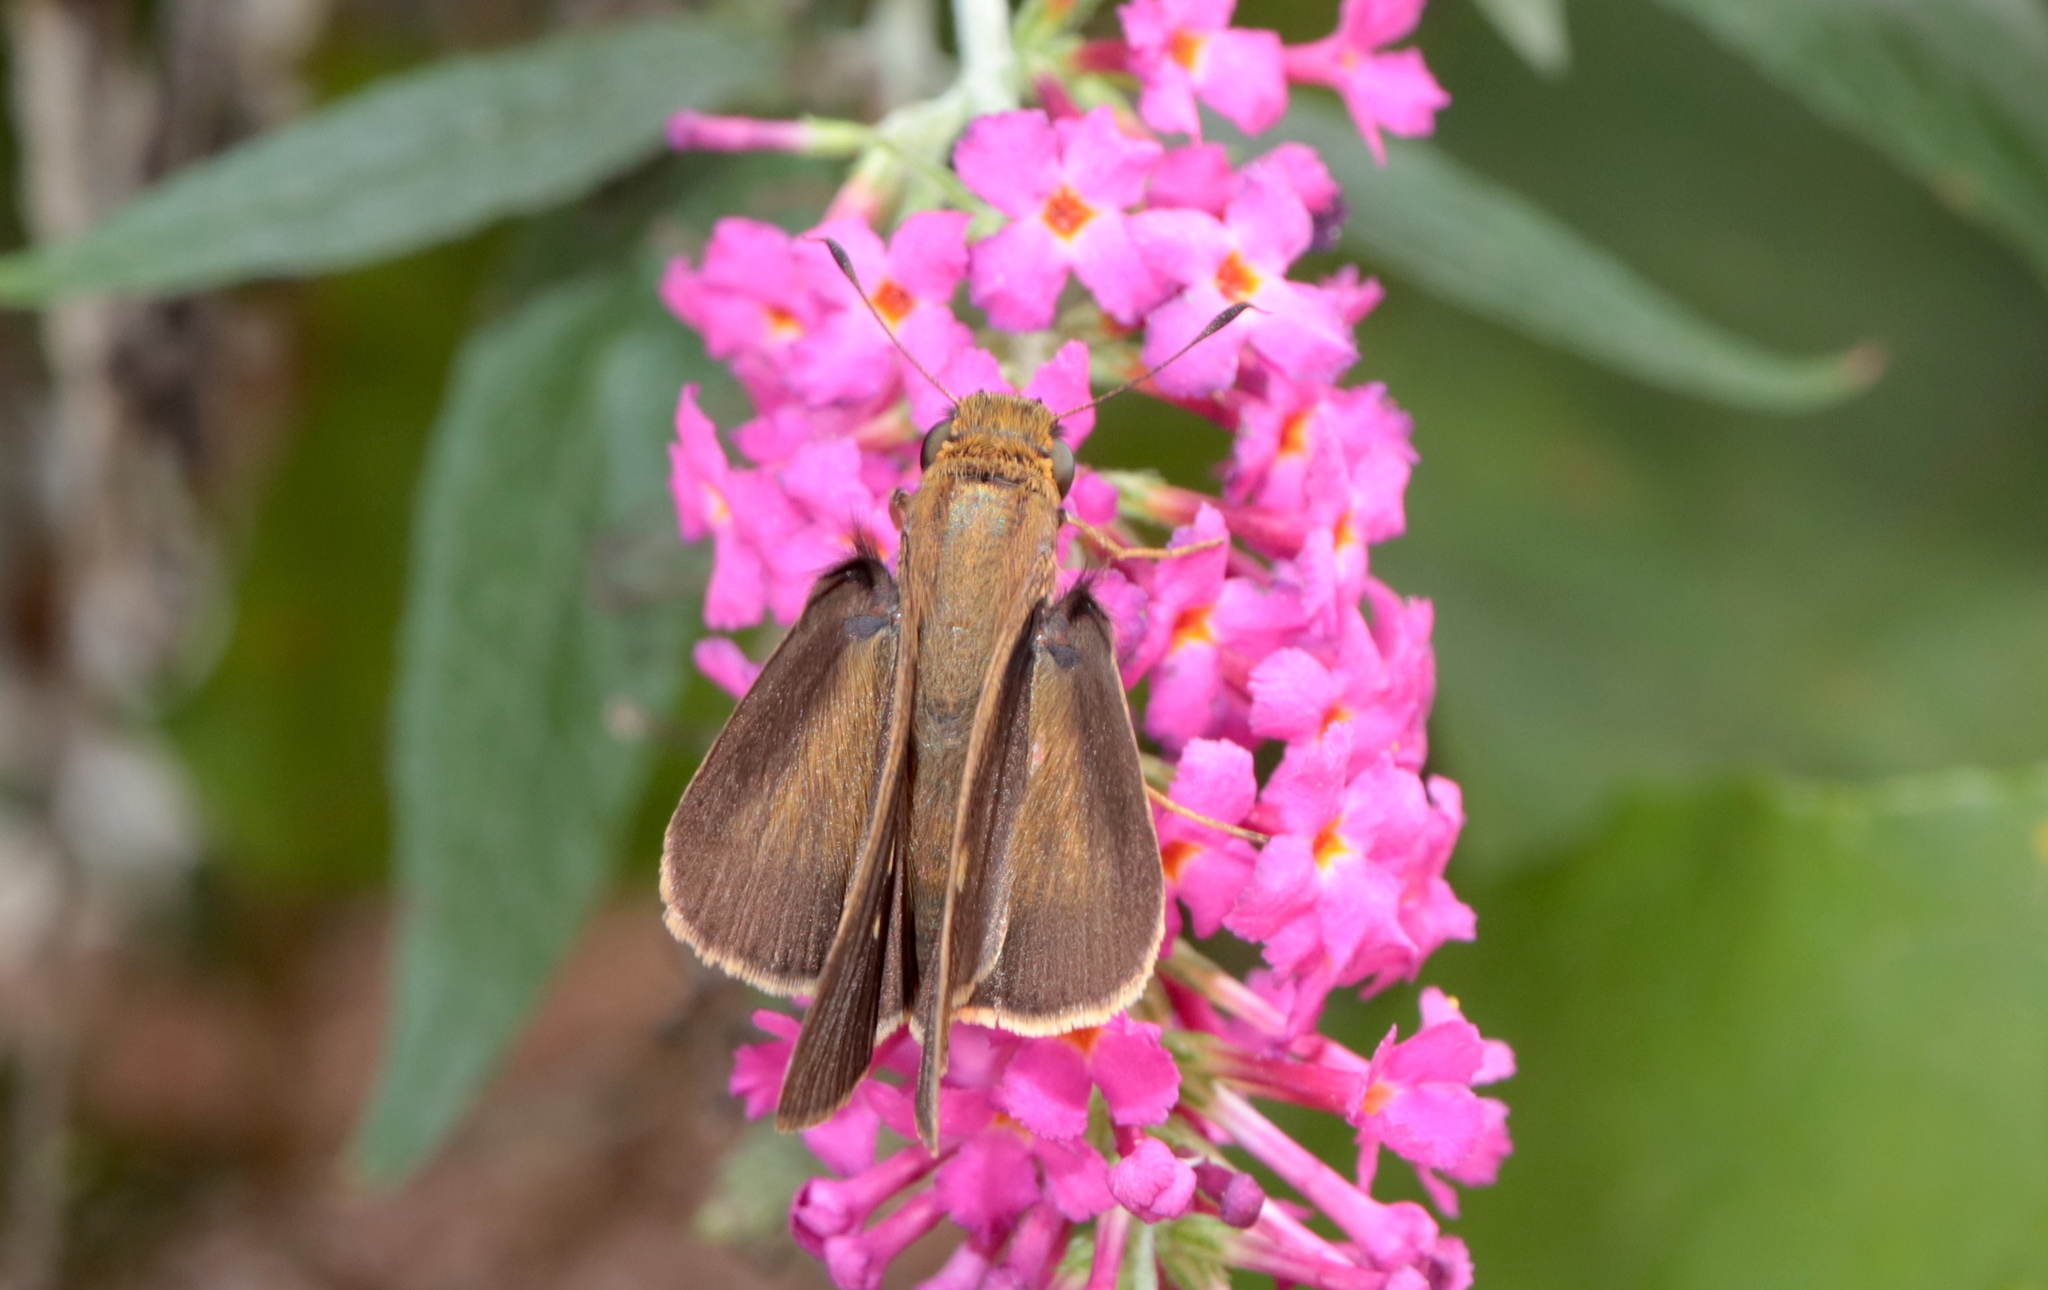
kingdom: Animalia
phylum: Arthropoda
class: Insecta
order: Lepidoptera
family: Hesperiidae
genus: Panoquina
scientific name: Panoquina ocola
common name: Ocola skipper
